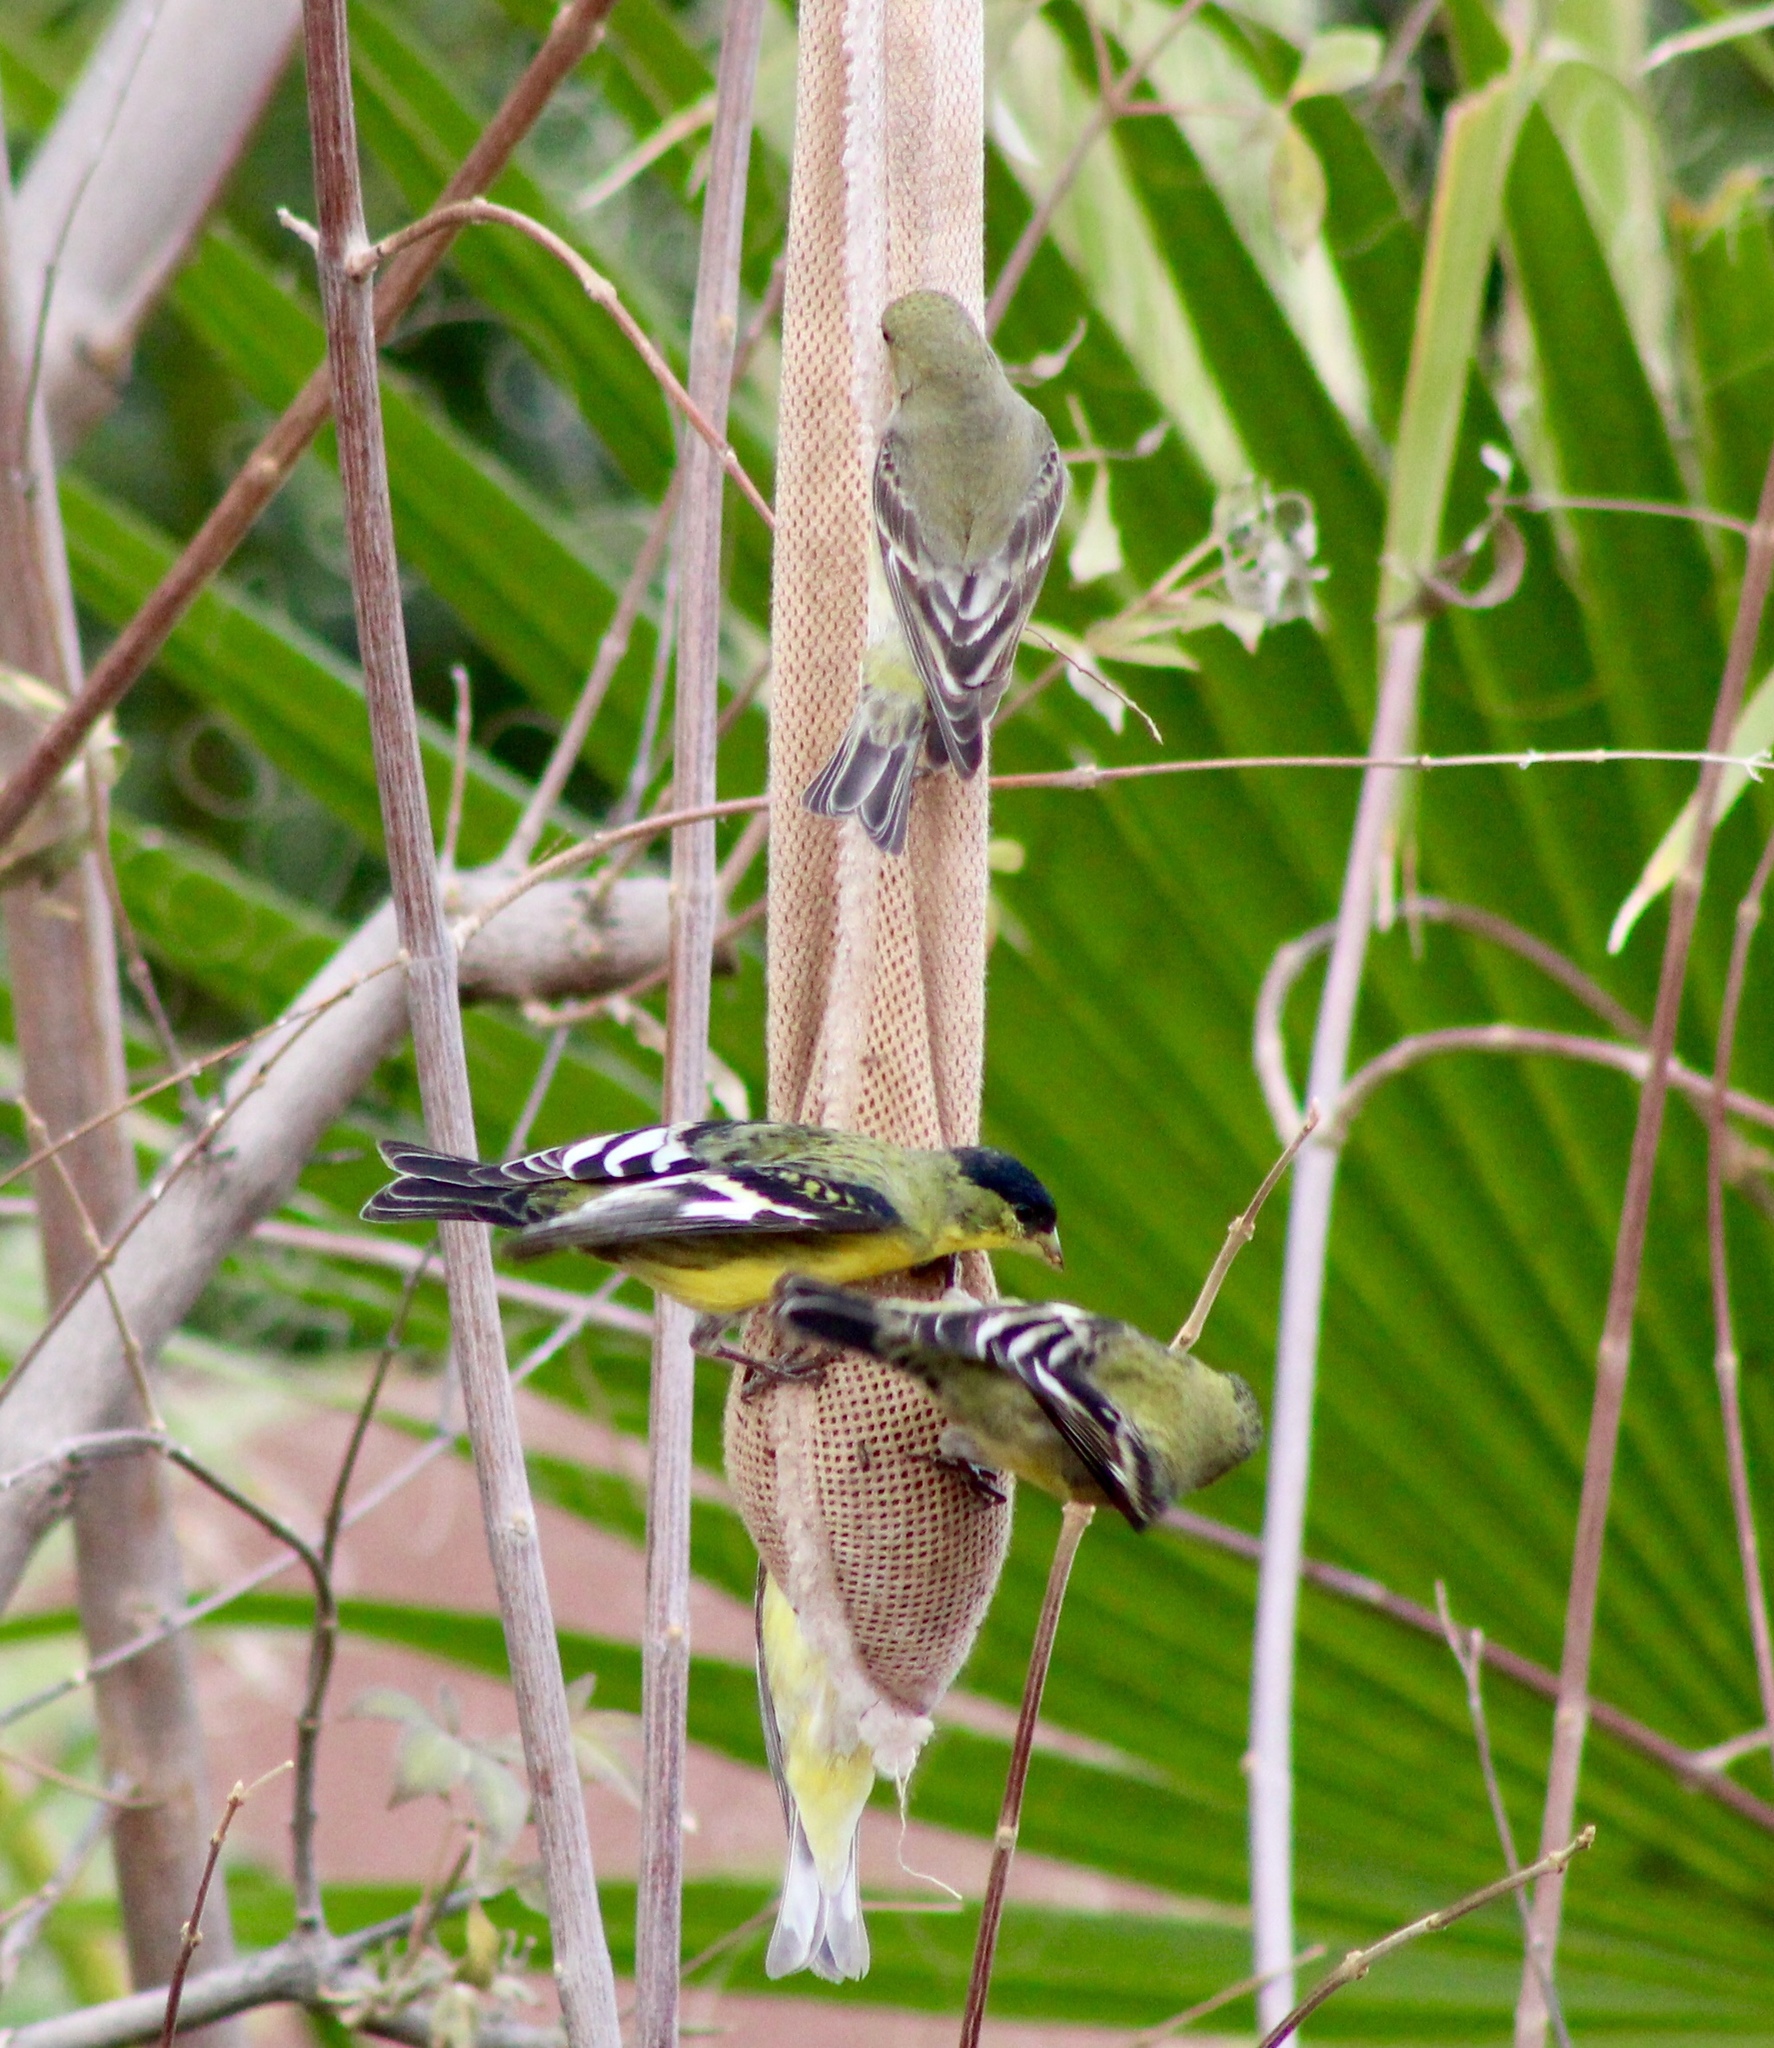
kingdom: Animalia
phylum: Chordata
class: Aves
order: Passeriformes
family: Fringillidae
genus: Spinus
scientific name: Spinus psaltria
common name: Lesser goldfinch
